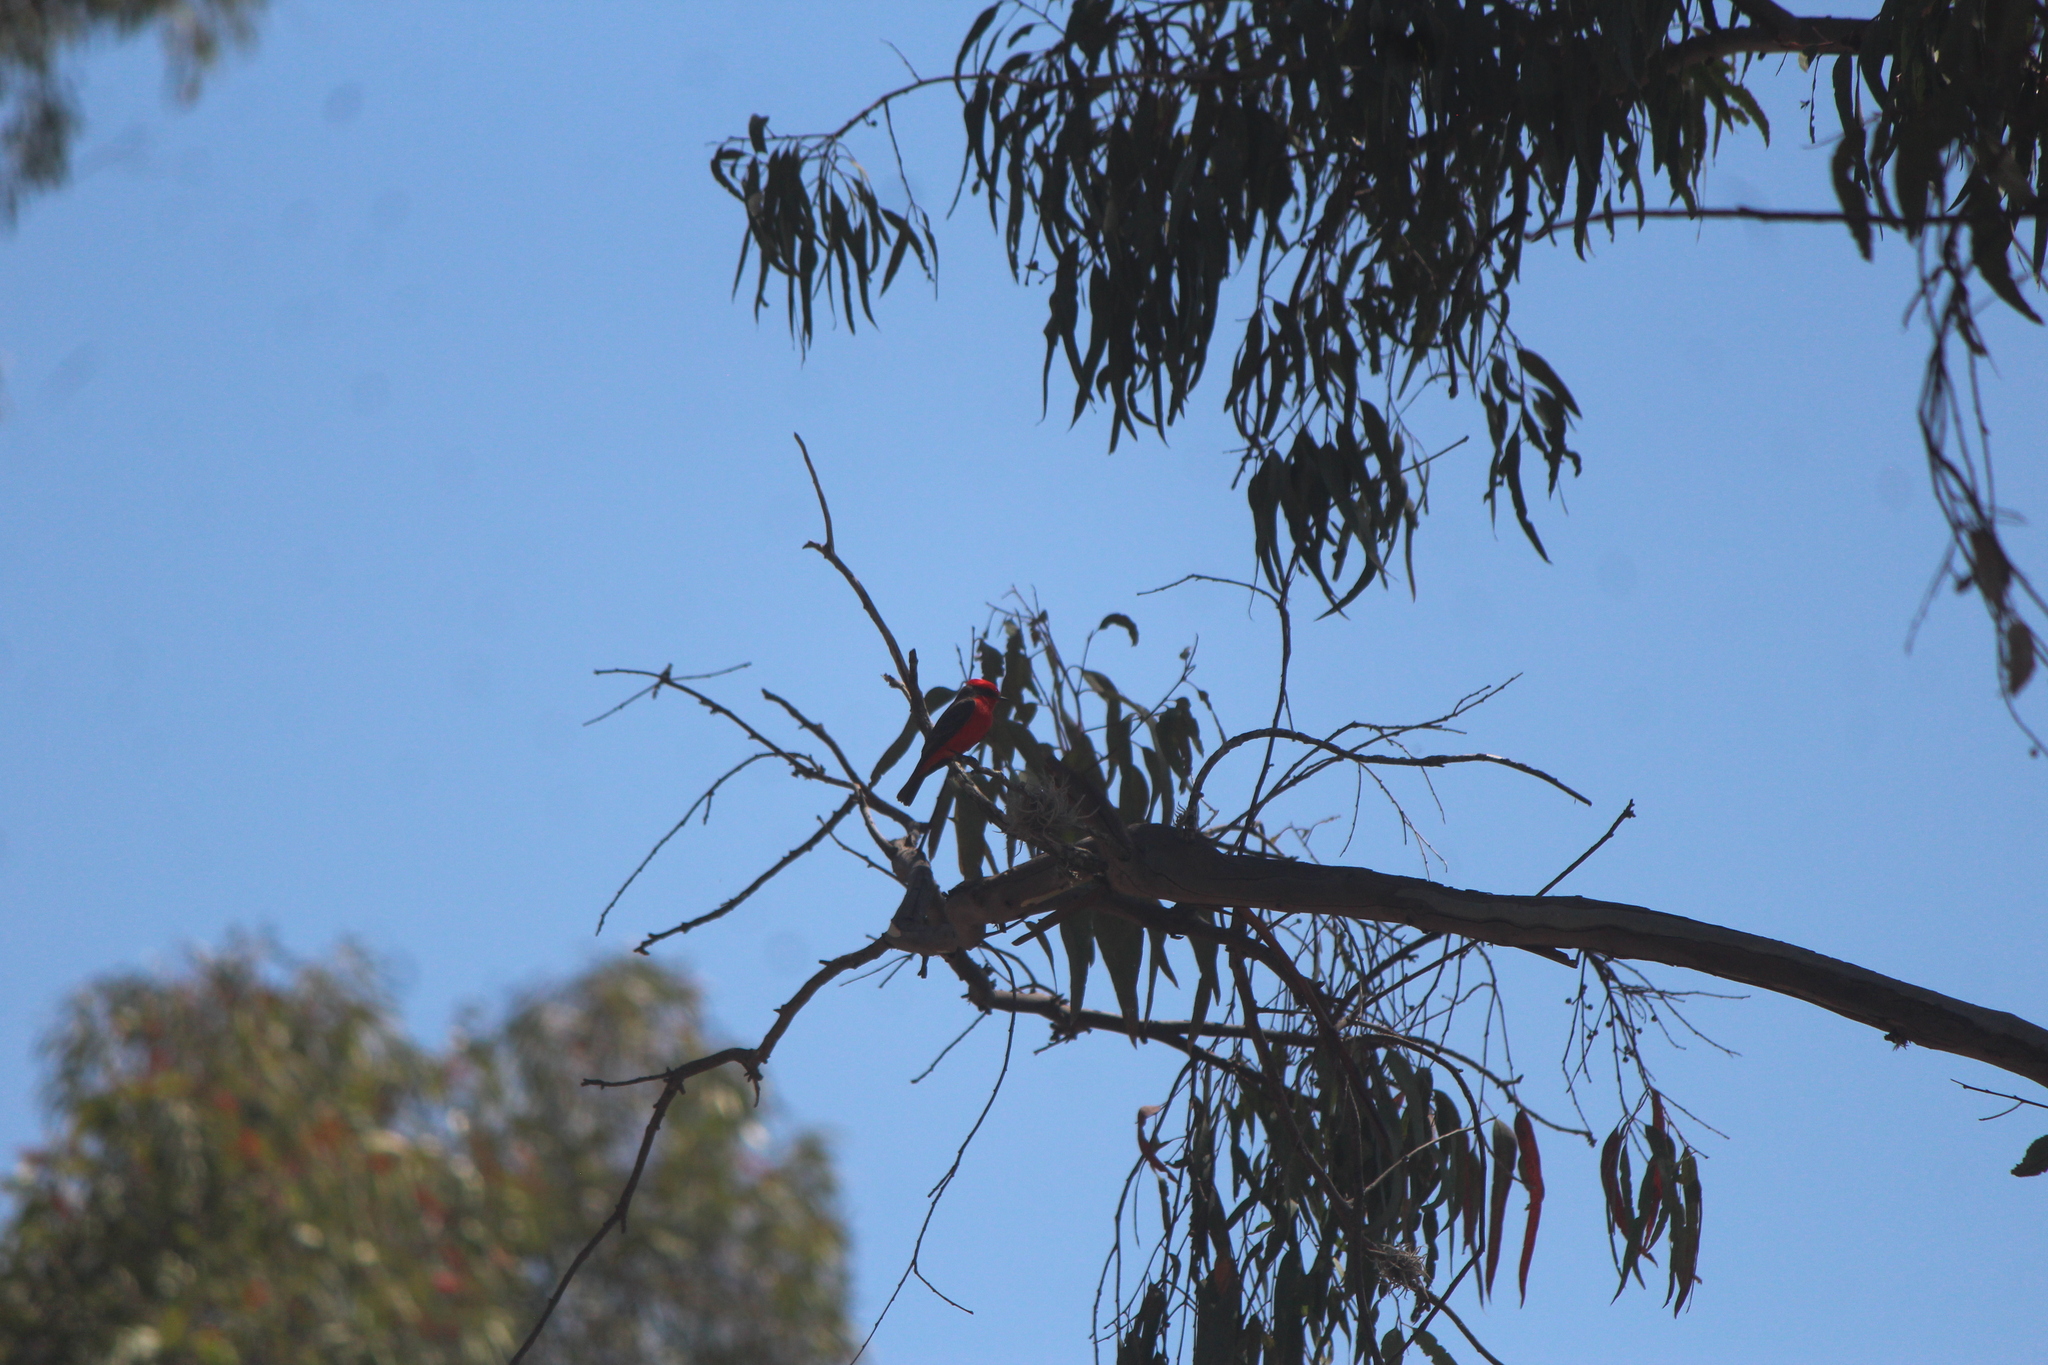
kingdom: Animalia
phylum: Chordata
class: Aves
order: Passeriformes
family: Tyrannidae
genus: Pyrocephalus
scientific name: Pyrocephalus rubinus
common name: Vermilion flycatcher
